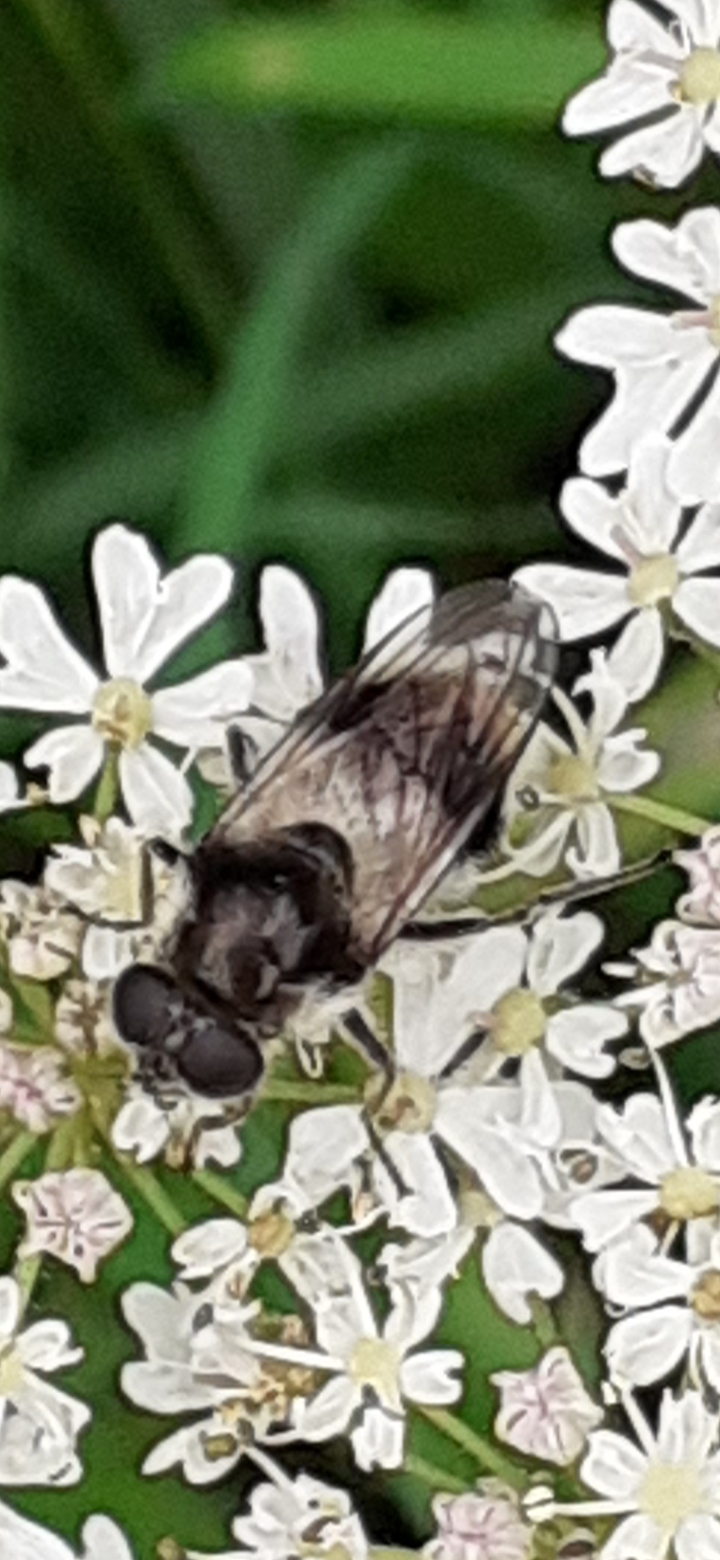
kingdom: Animalia
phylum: Arthropoda
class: Insecta
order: Diptera
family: Syrphidae
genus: Cheilosia
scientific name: Cheilosia illustrata
